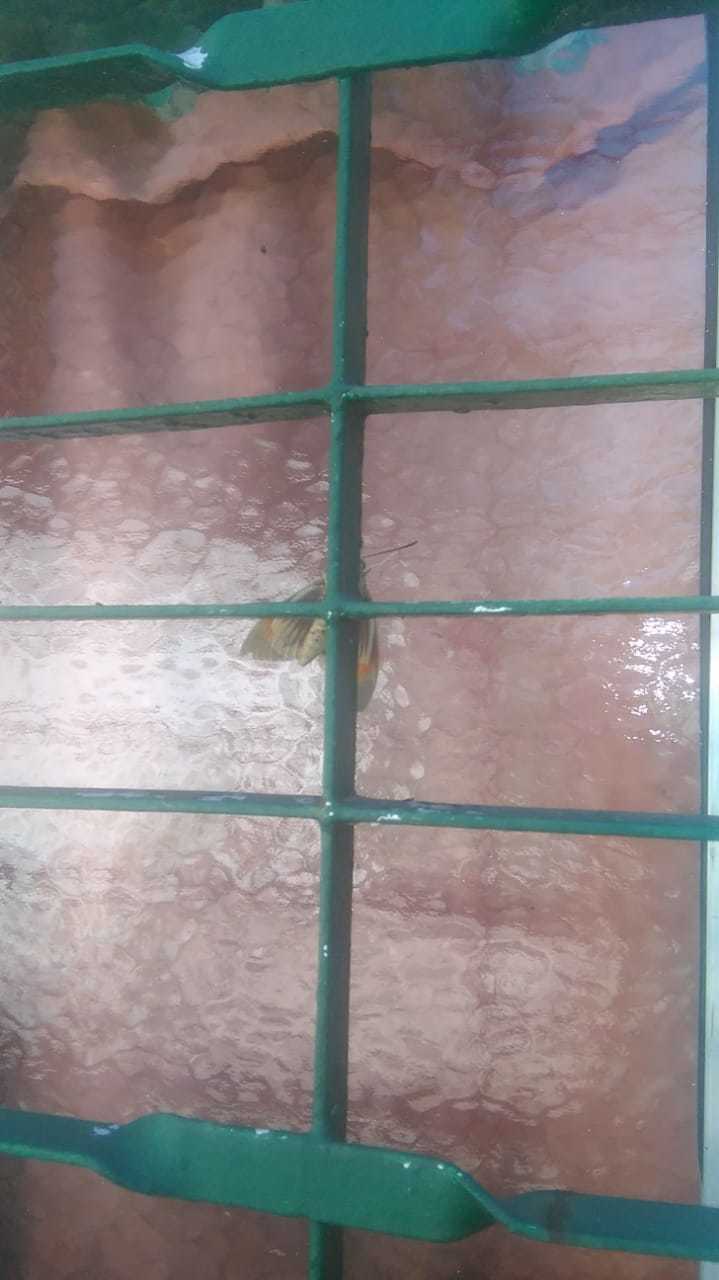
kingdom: Animalia
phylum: Arthropoda
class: Insecta
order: Lepidoptera
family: Castniidae
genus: Paysandisia
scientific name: Paysandisia archon
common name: Palm moth
